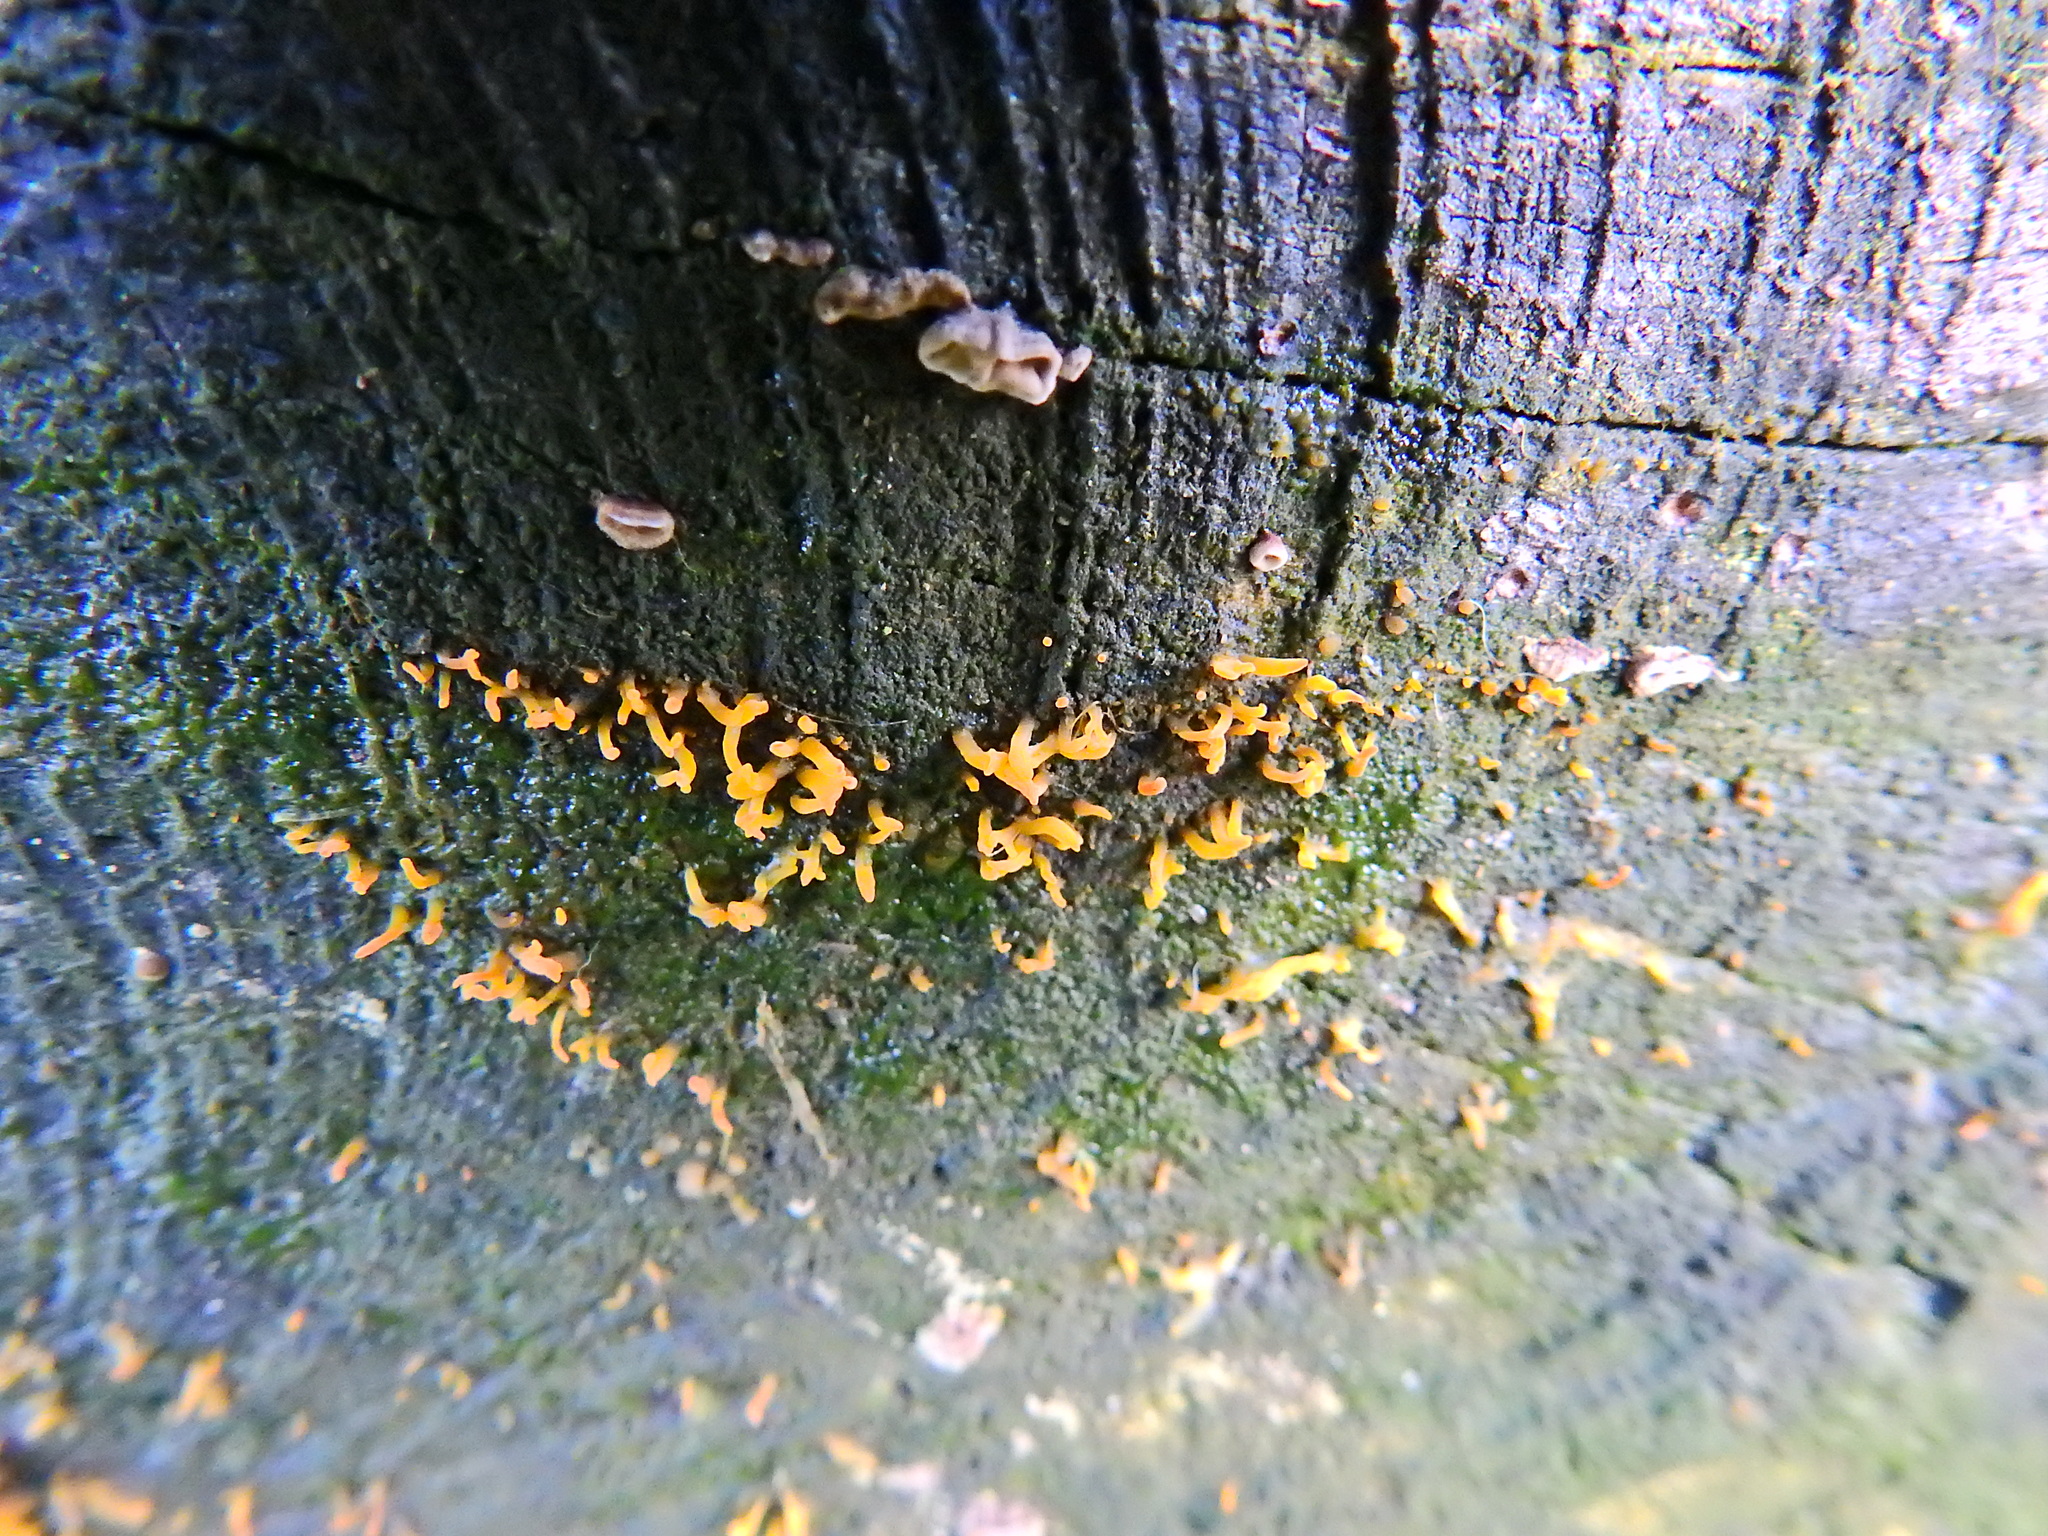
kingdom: Fungi
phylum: Basidiomycota
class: Dacrymycetes
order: Dacrymycetales
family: Dacrymycetaceae
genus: Calocera
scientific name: Calocera cornea
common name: Small stagshorn
